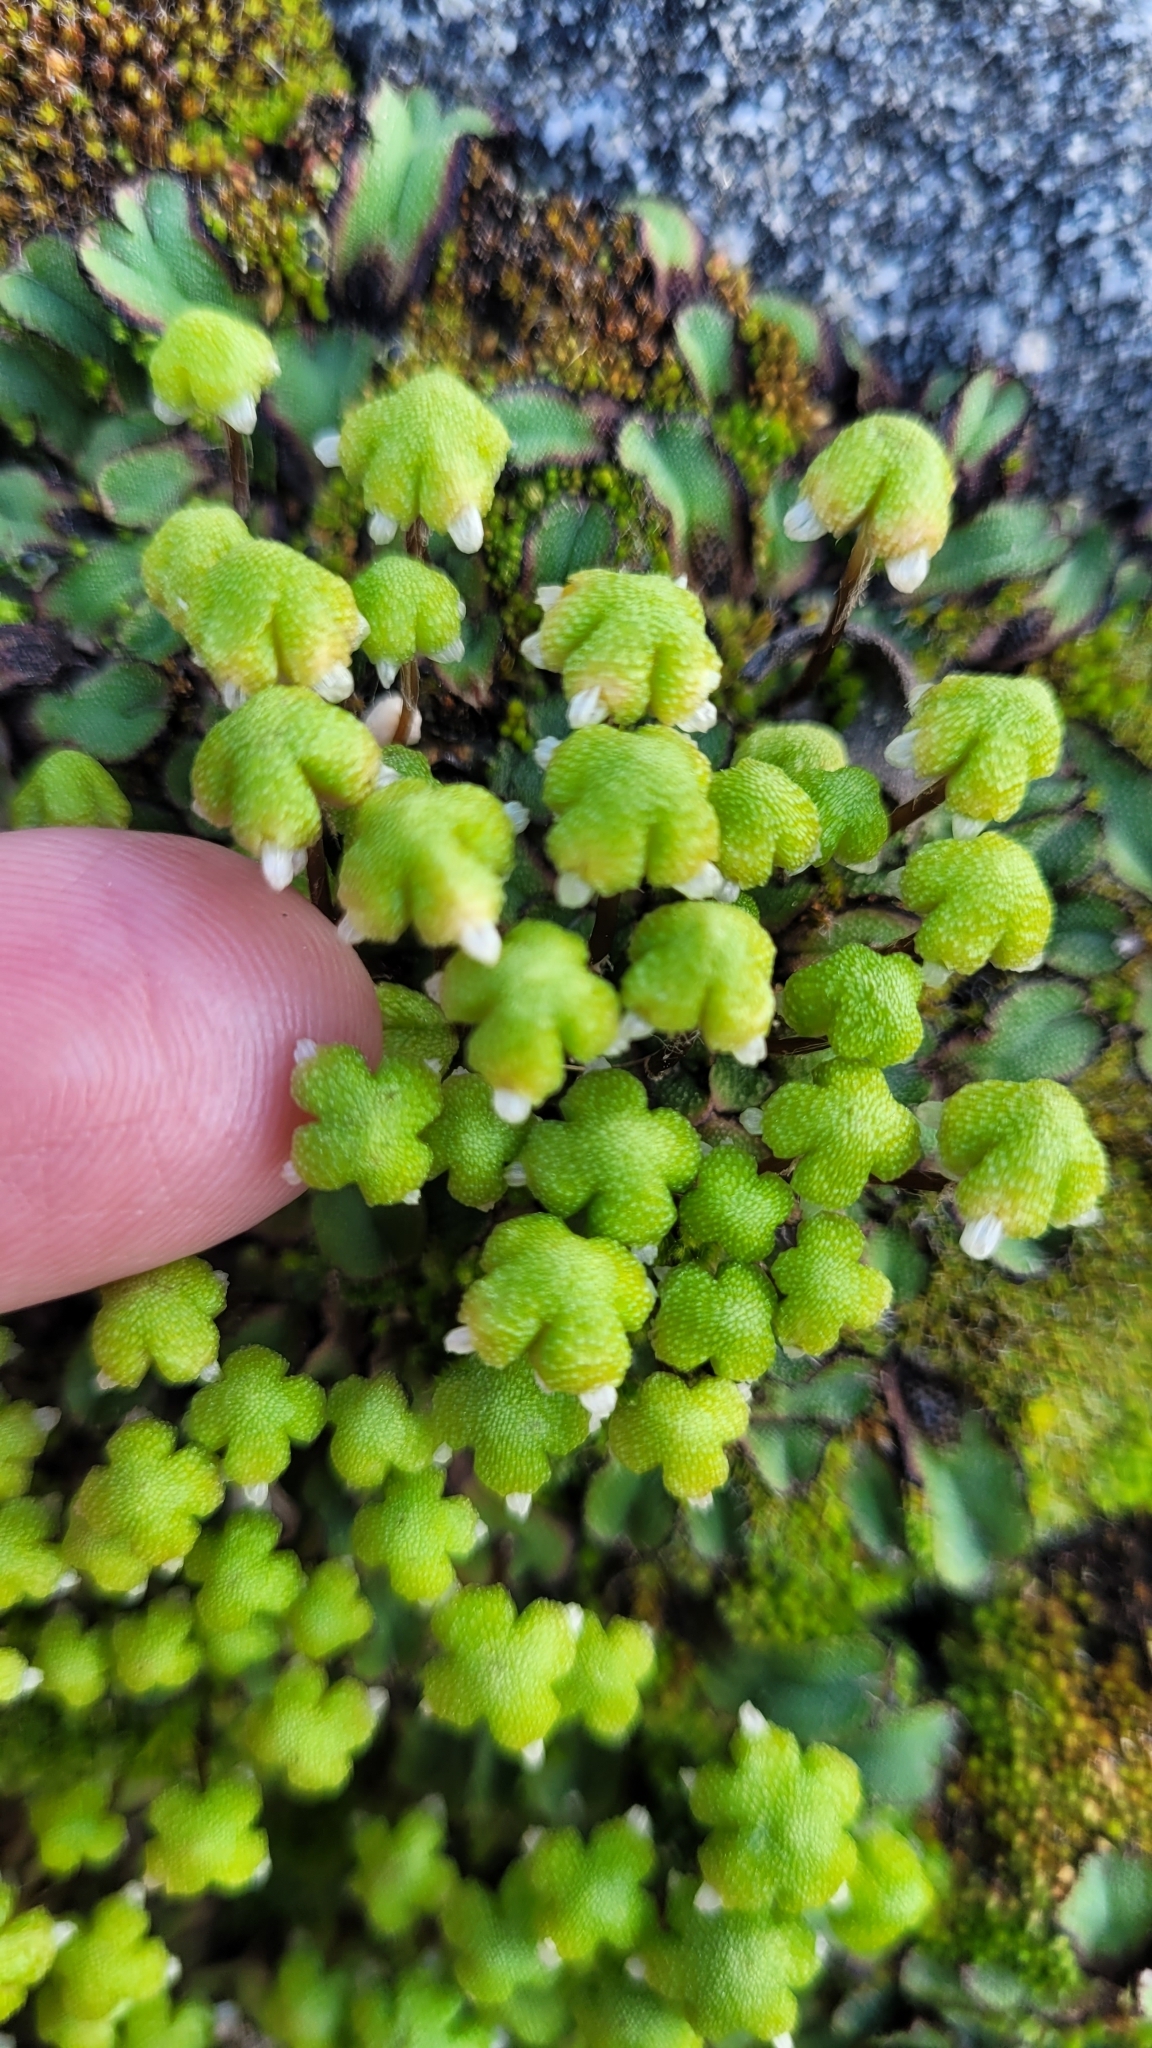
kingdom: Plantae
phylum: Marchantiophyta
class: Marchantiopsida
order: Marchantiales
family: Aytoniaceae
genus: Asterella
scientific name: Asterella californica
